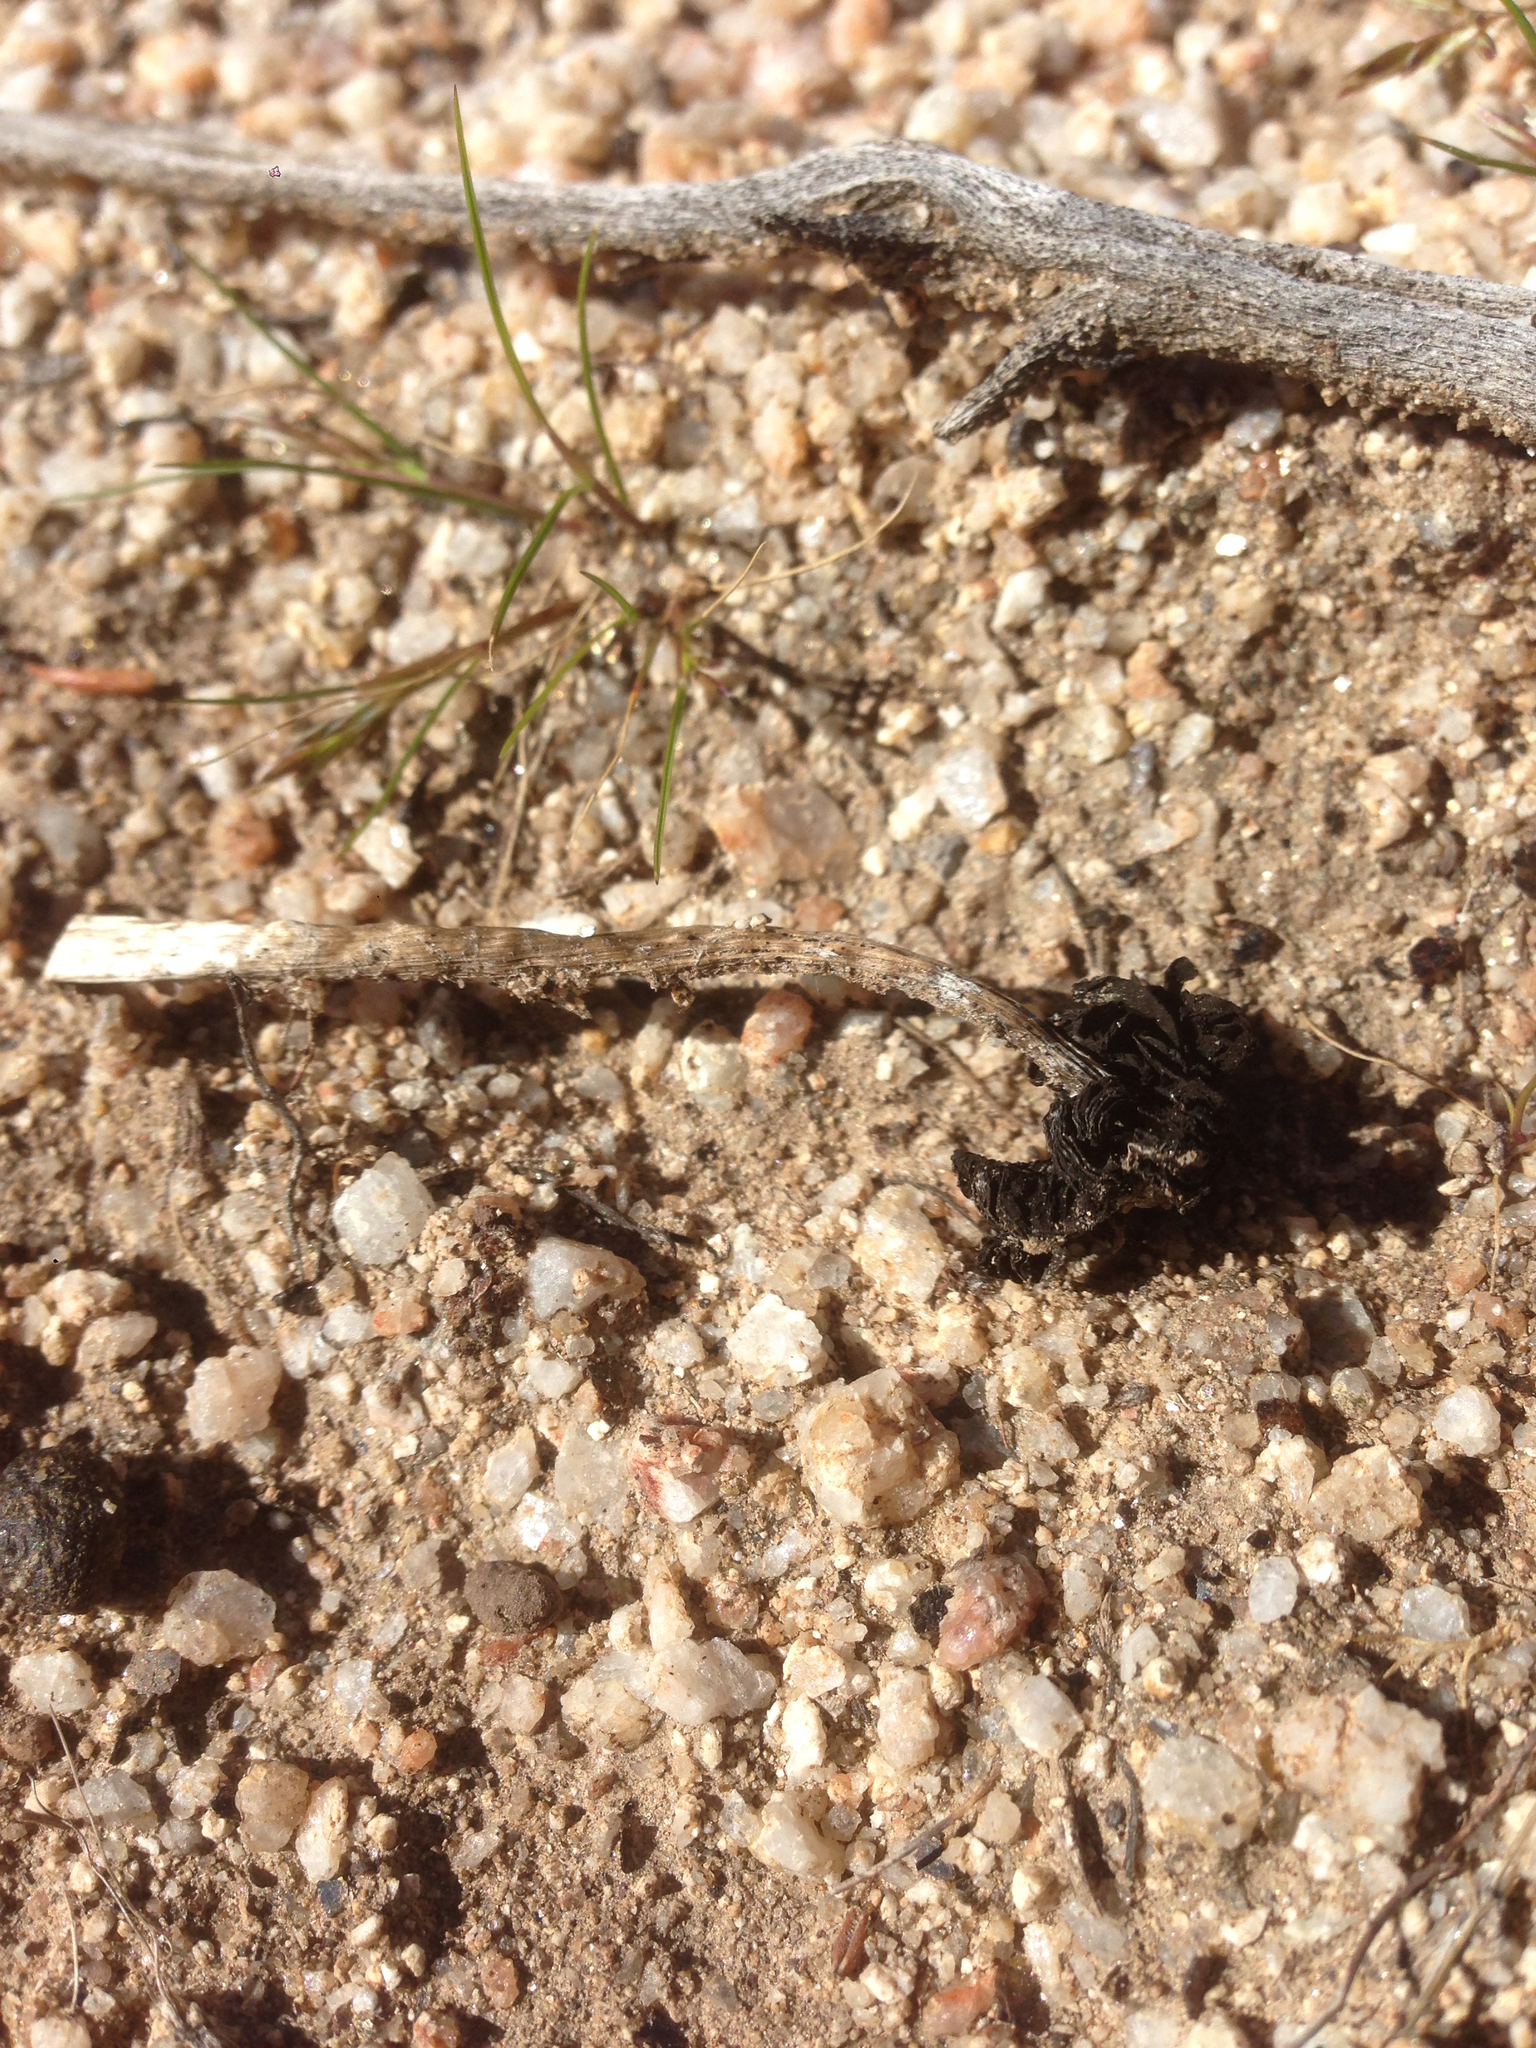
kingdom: Fungi
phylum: Basidiomycota
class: Agaricomycetes
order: Agaricales
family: Agaricaceae
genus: Montagnea
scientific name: Montagnea arenaria
